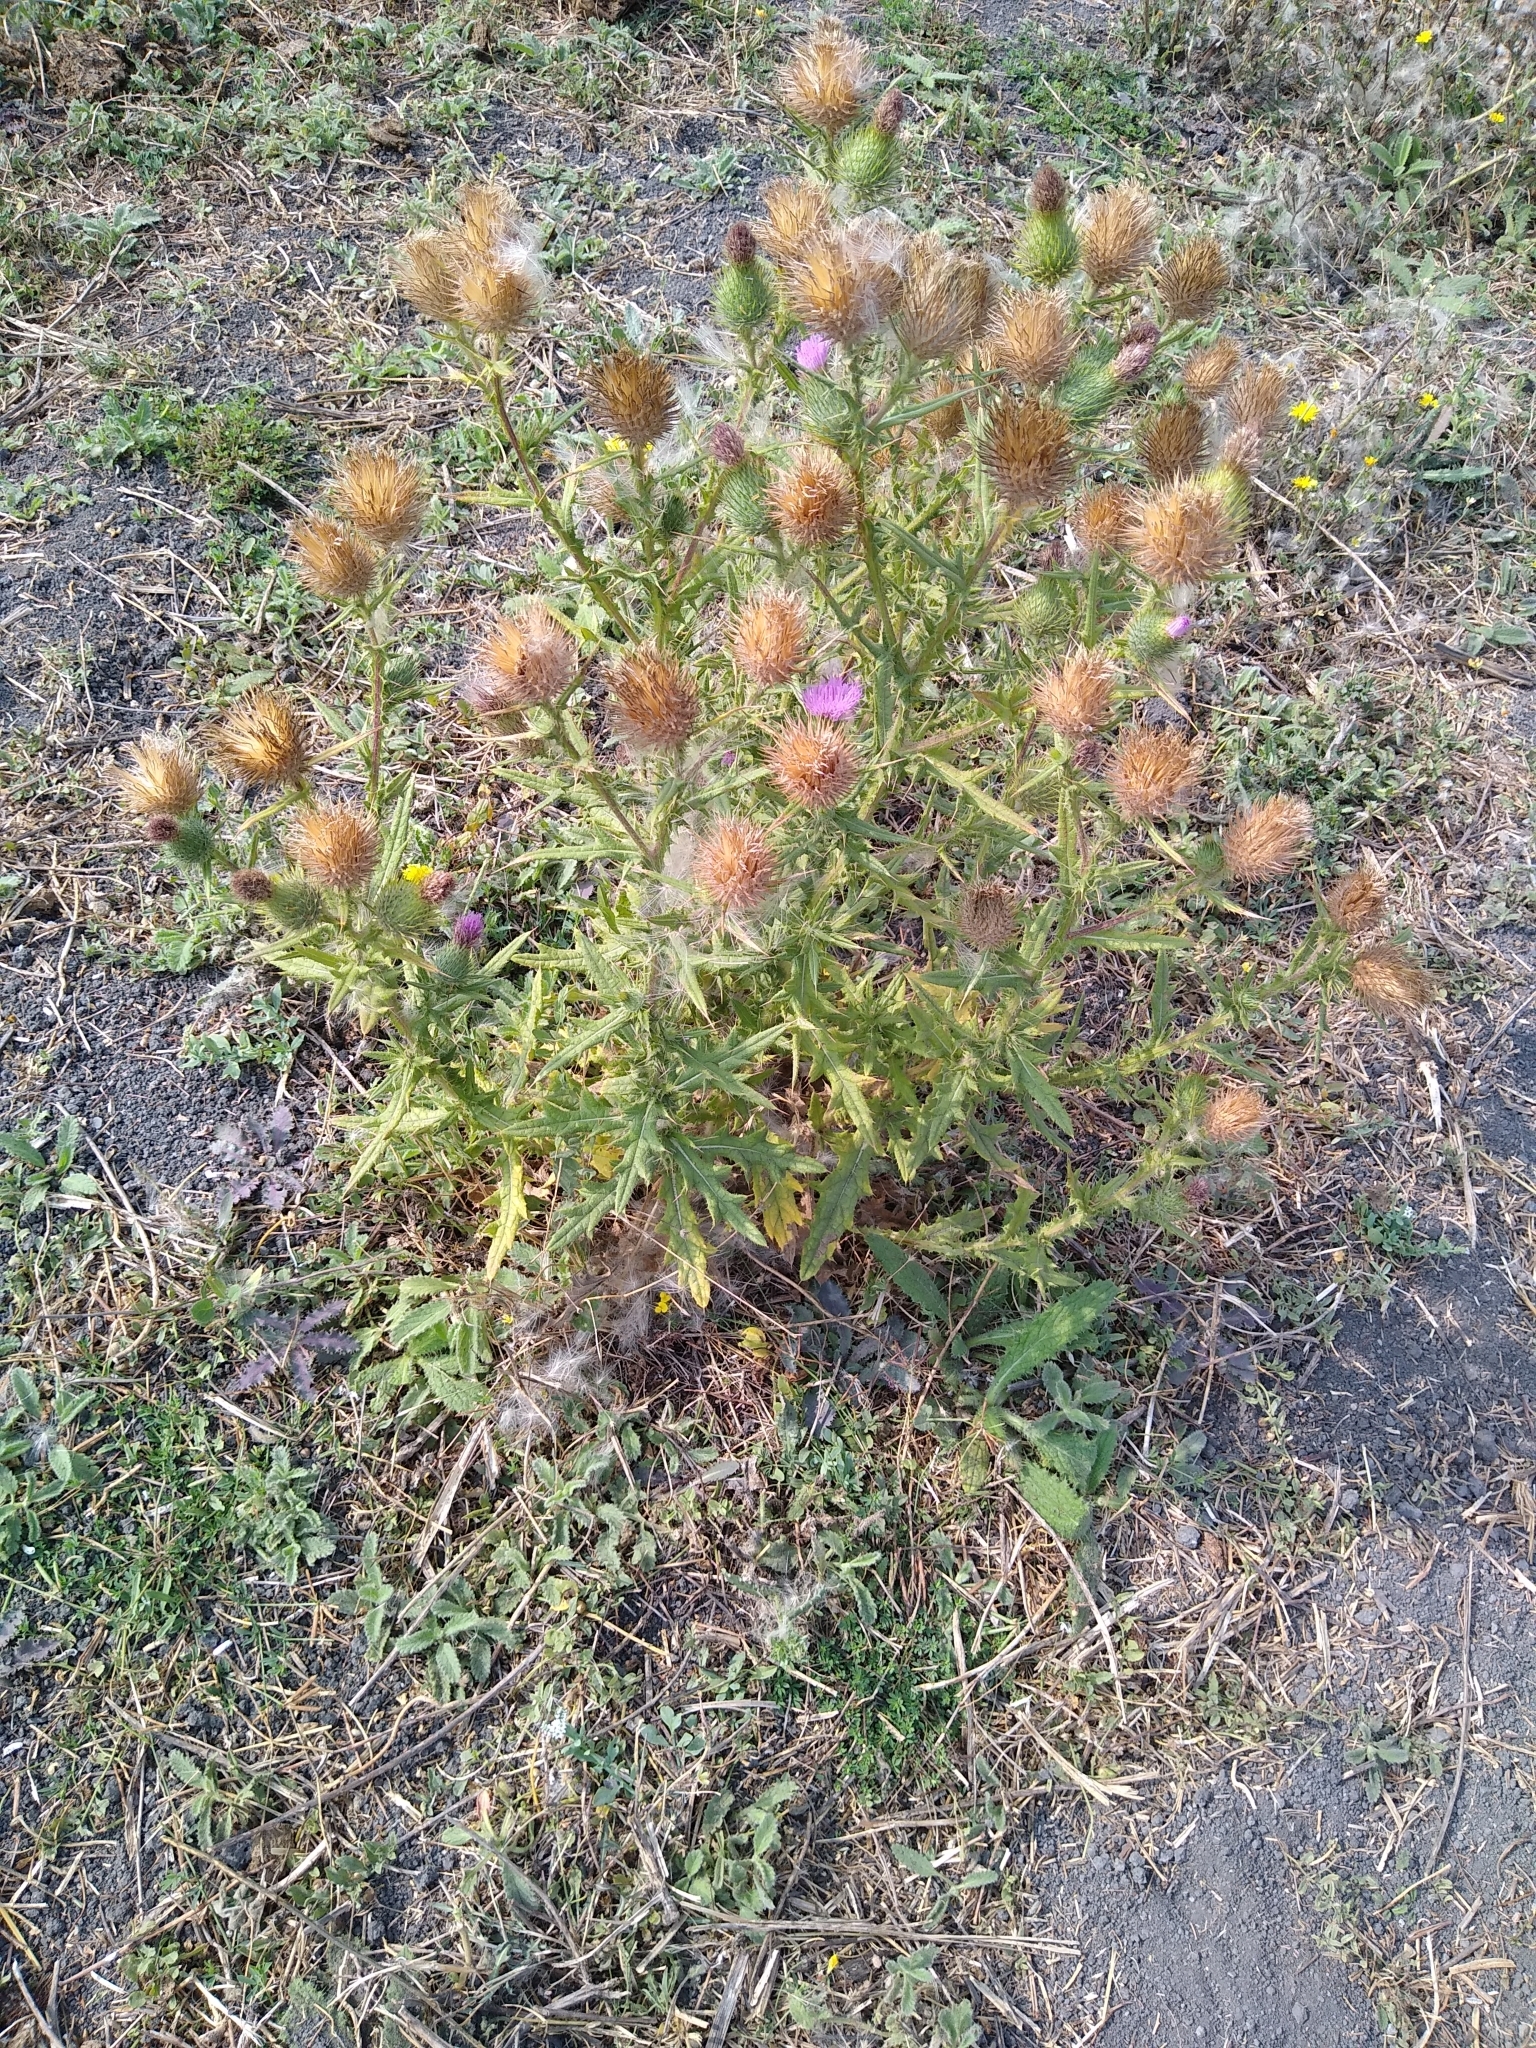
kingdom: Plantae
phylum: Tracheophyta
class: Magnoliopsida
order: Asterales
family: Asteraceae
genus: Cirsium
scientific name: Cirsium vulgare
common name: Bull thistle
